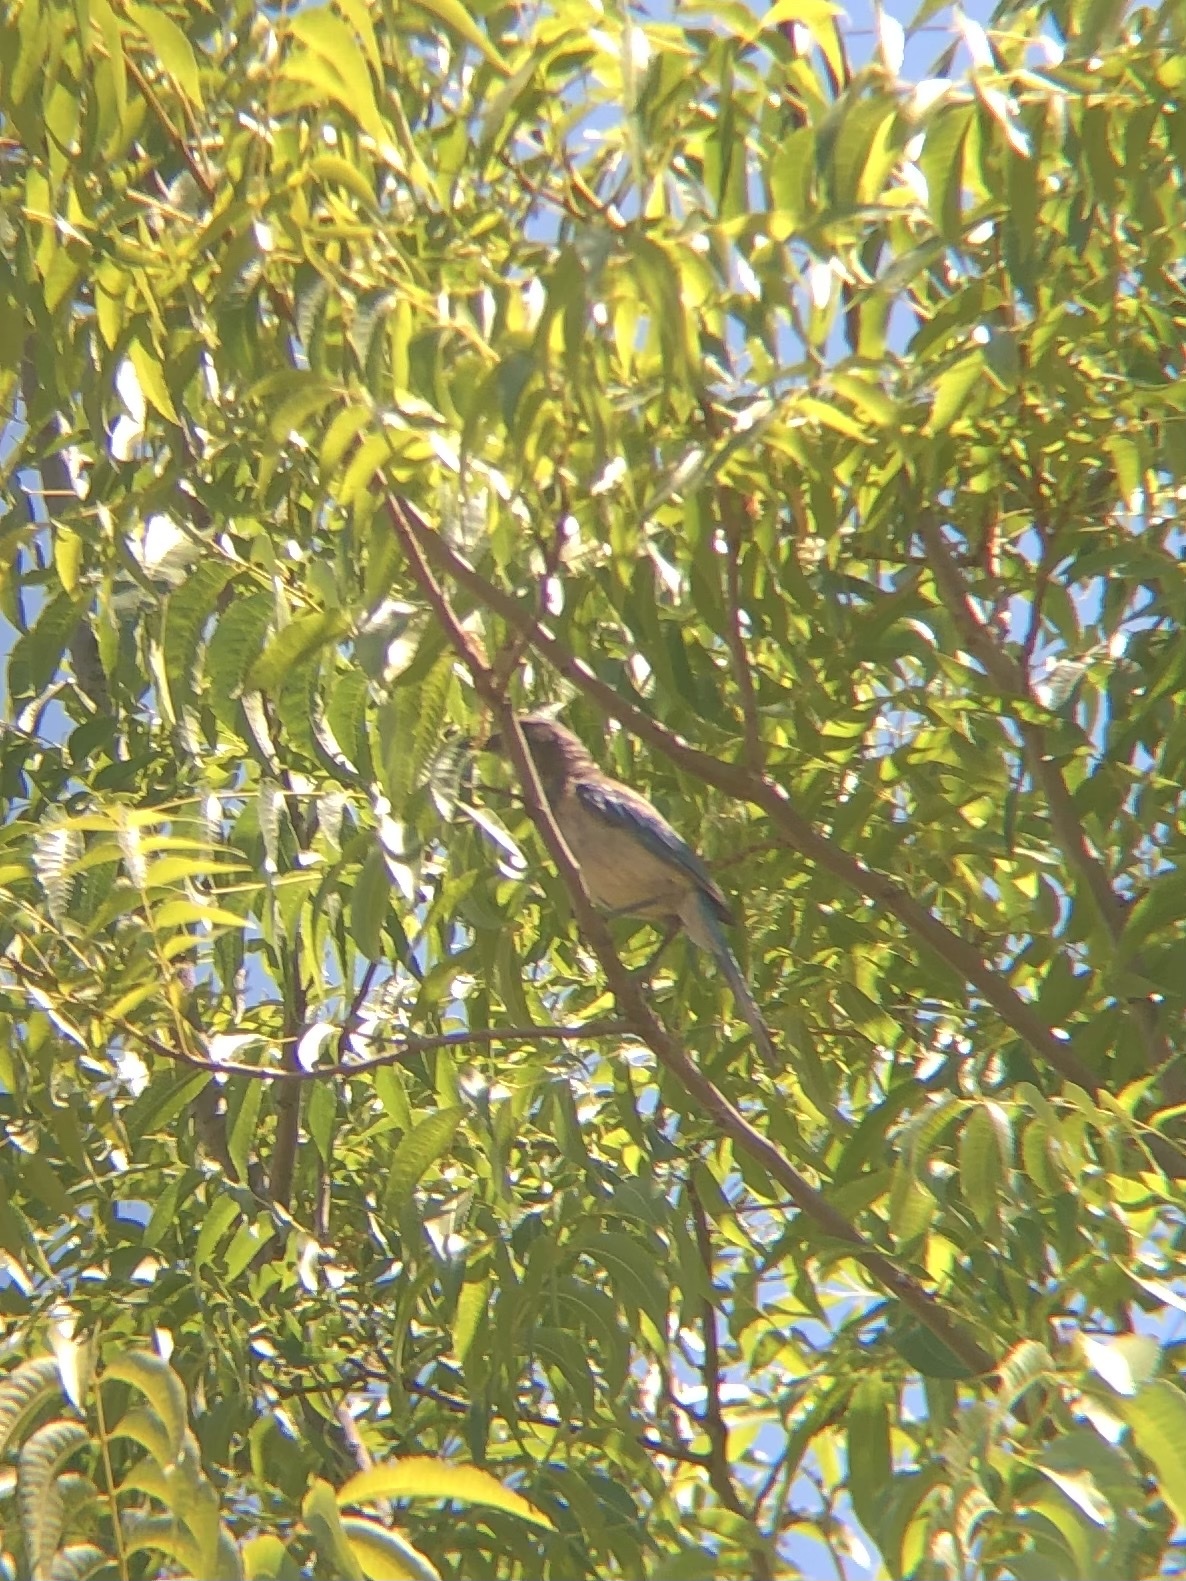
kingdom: Animalia
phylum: Chordata
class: Aves
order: Passeriformes
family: Corvidae
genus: Aphelocoma
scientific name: Aphelocoma californica
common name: California scrub-jay
